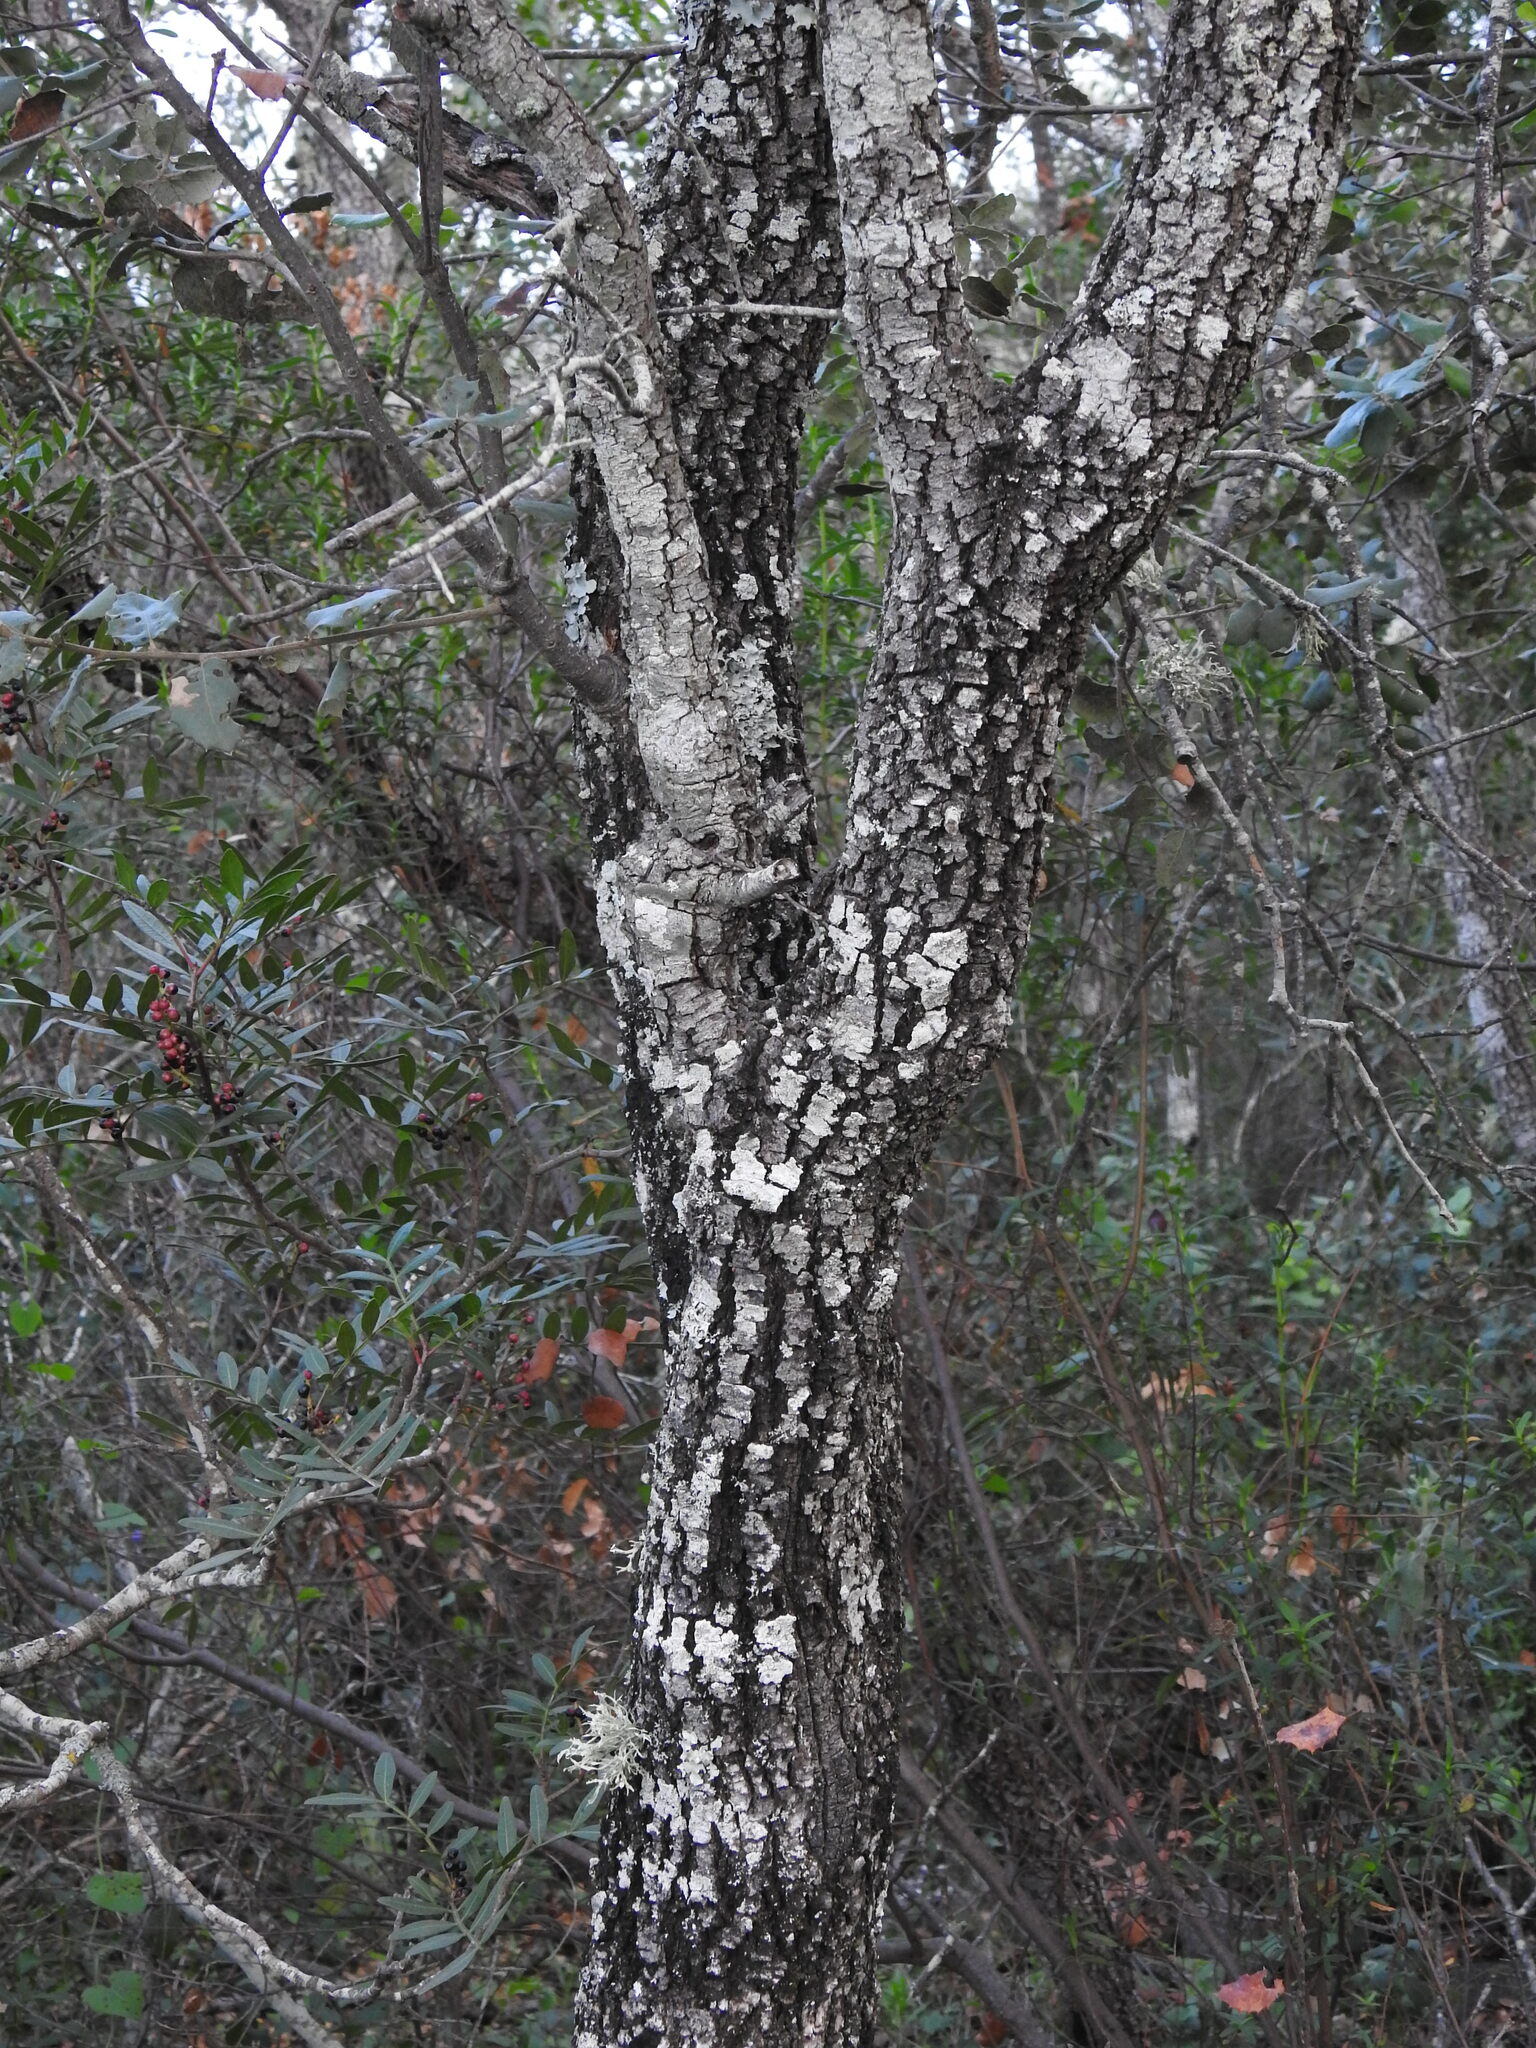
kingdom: Plantae
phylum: Tracheophyta
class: Magnoliopsida
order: Fagales
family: Fagaceae
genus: Quercus
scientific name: Quercus rotundifolia
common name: Holm oak
